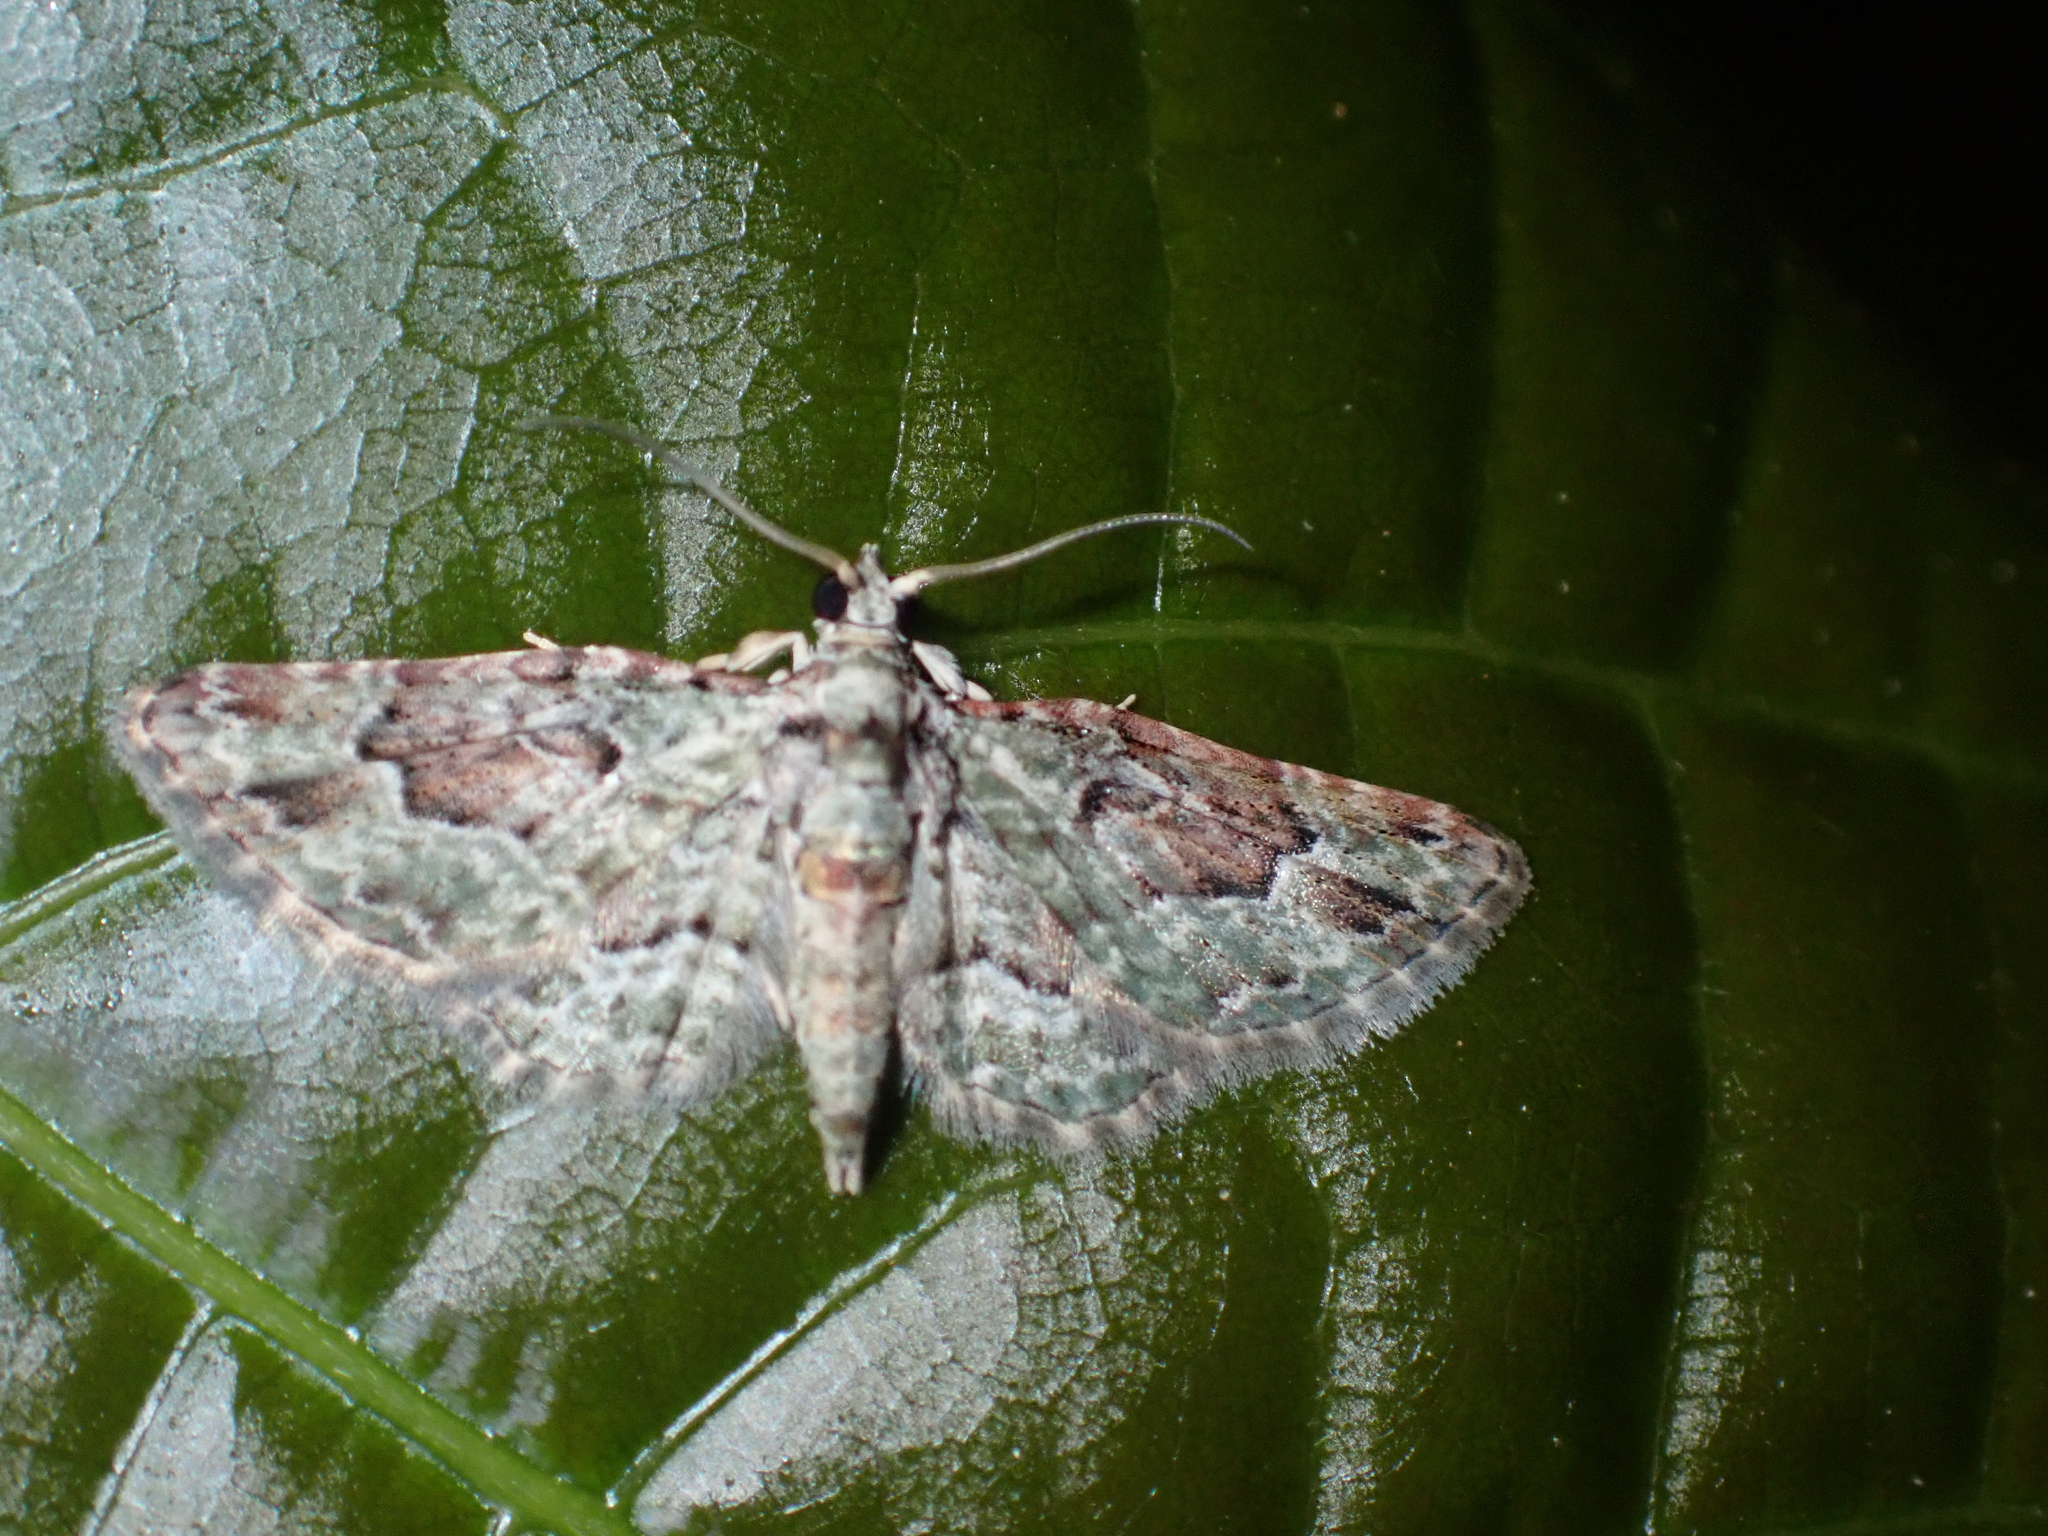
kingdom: Animalia
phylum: Arthropoda
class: Insecta
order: Lepidoptera
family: Geometridae
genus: Calluga
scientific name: Calluga costalis
